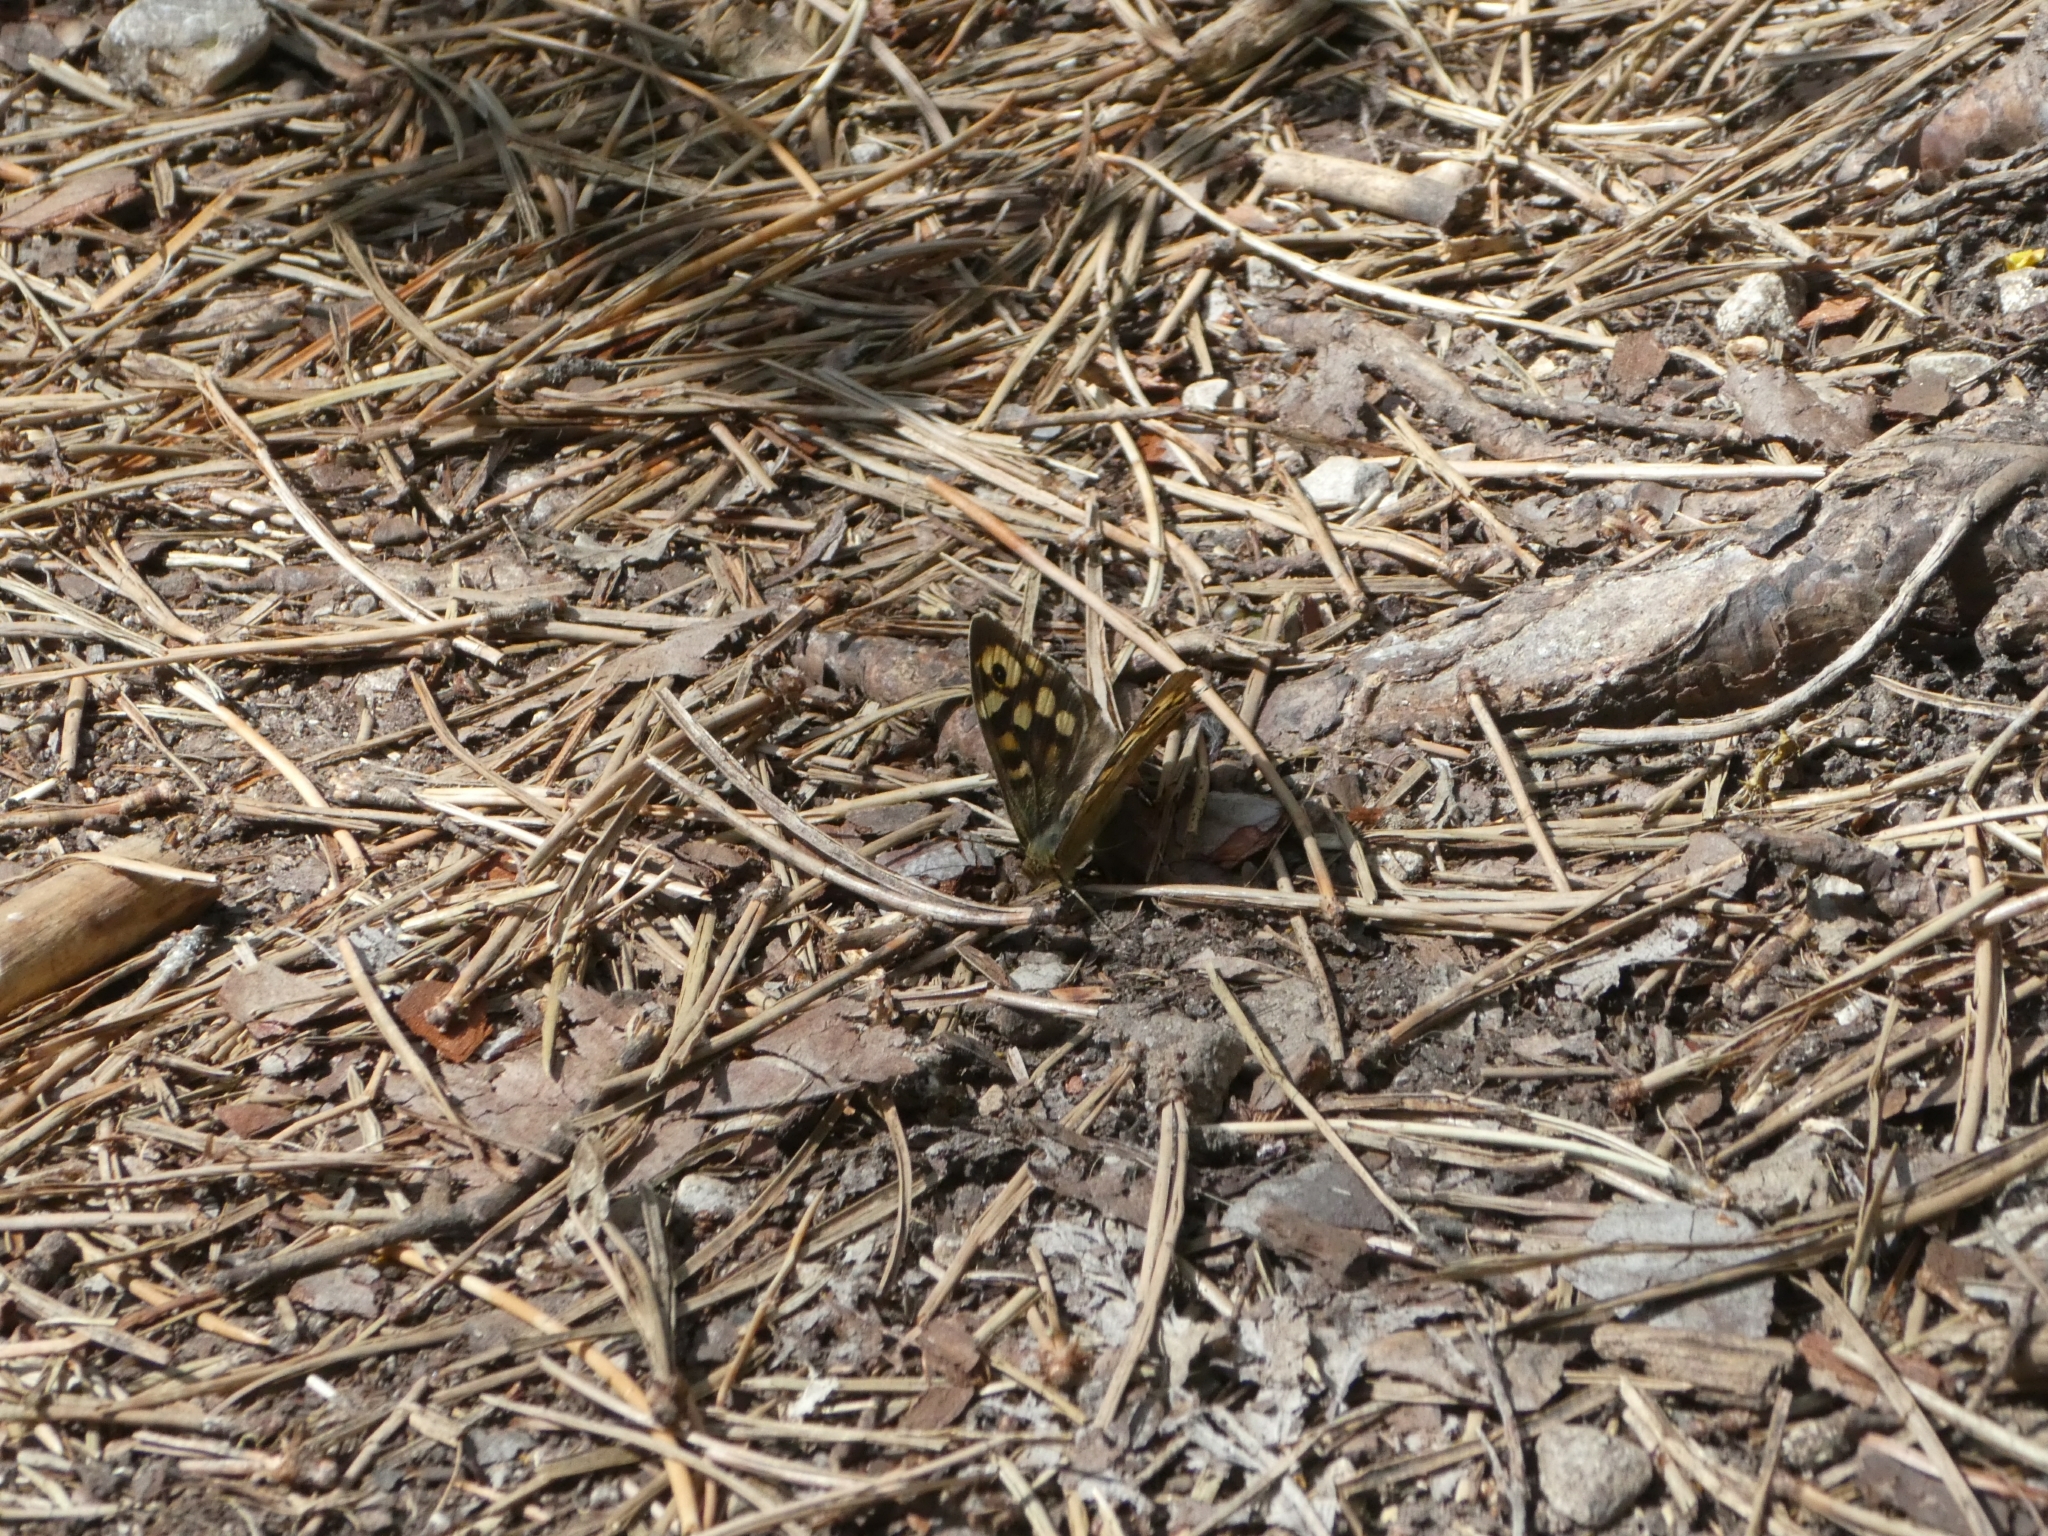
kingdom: Animalia
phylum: Arthropoda
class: Insecta
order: Lepidoptera
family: Nymphalidae
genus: Pararge
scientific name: Pararge aegeria
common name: Speckled wood
